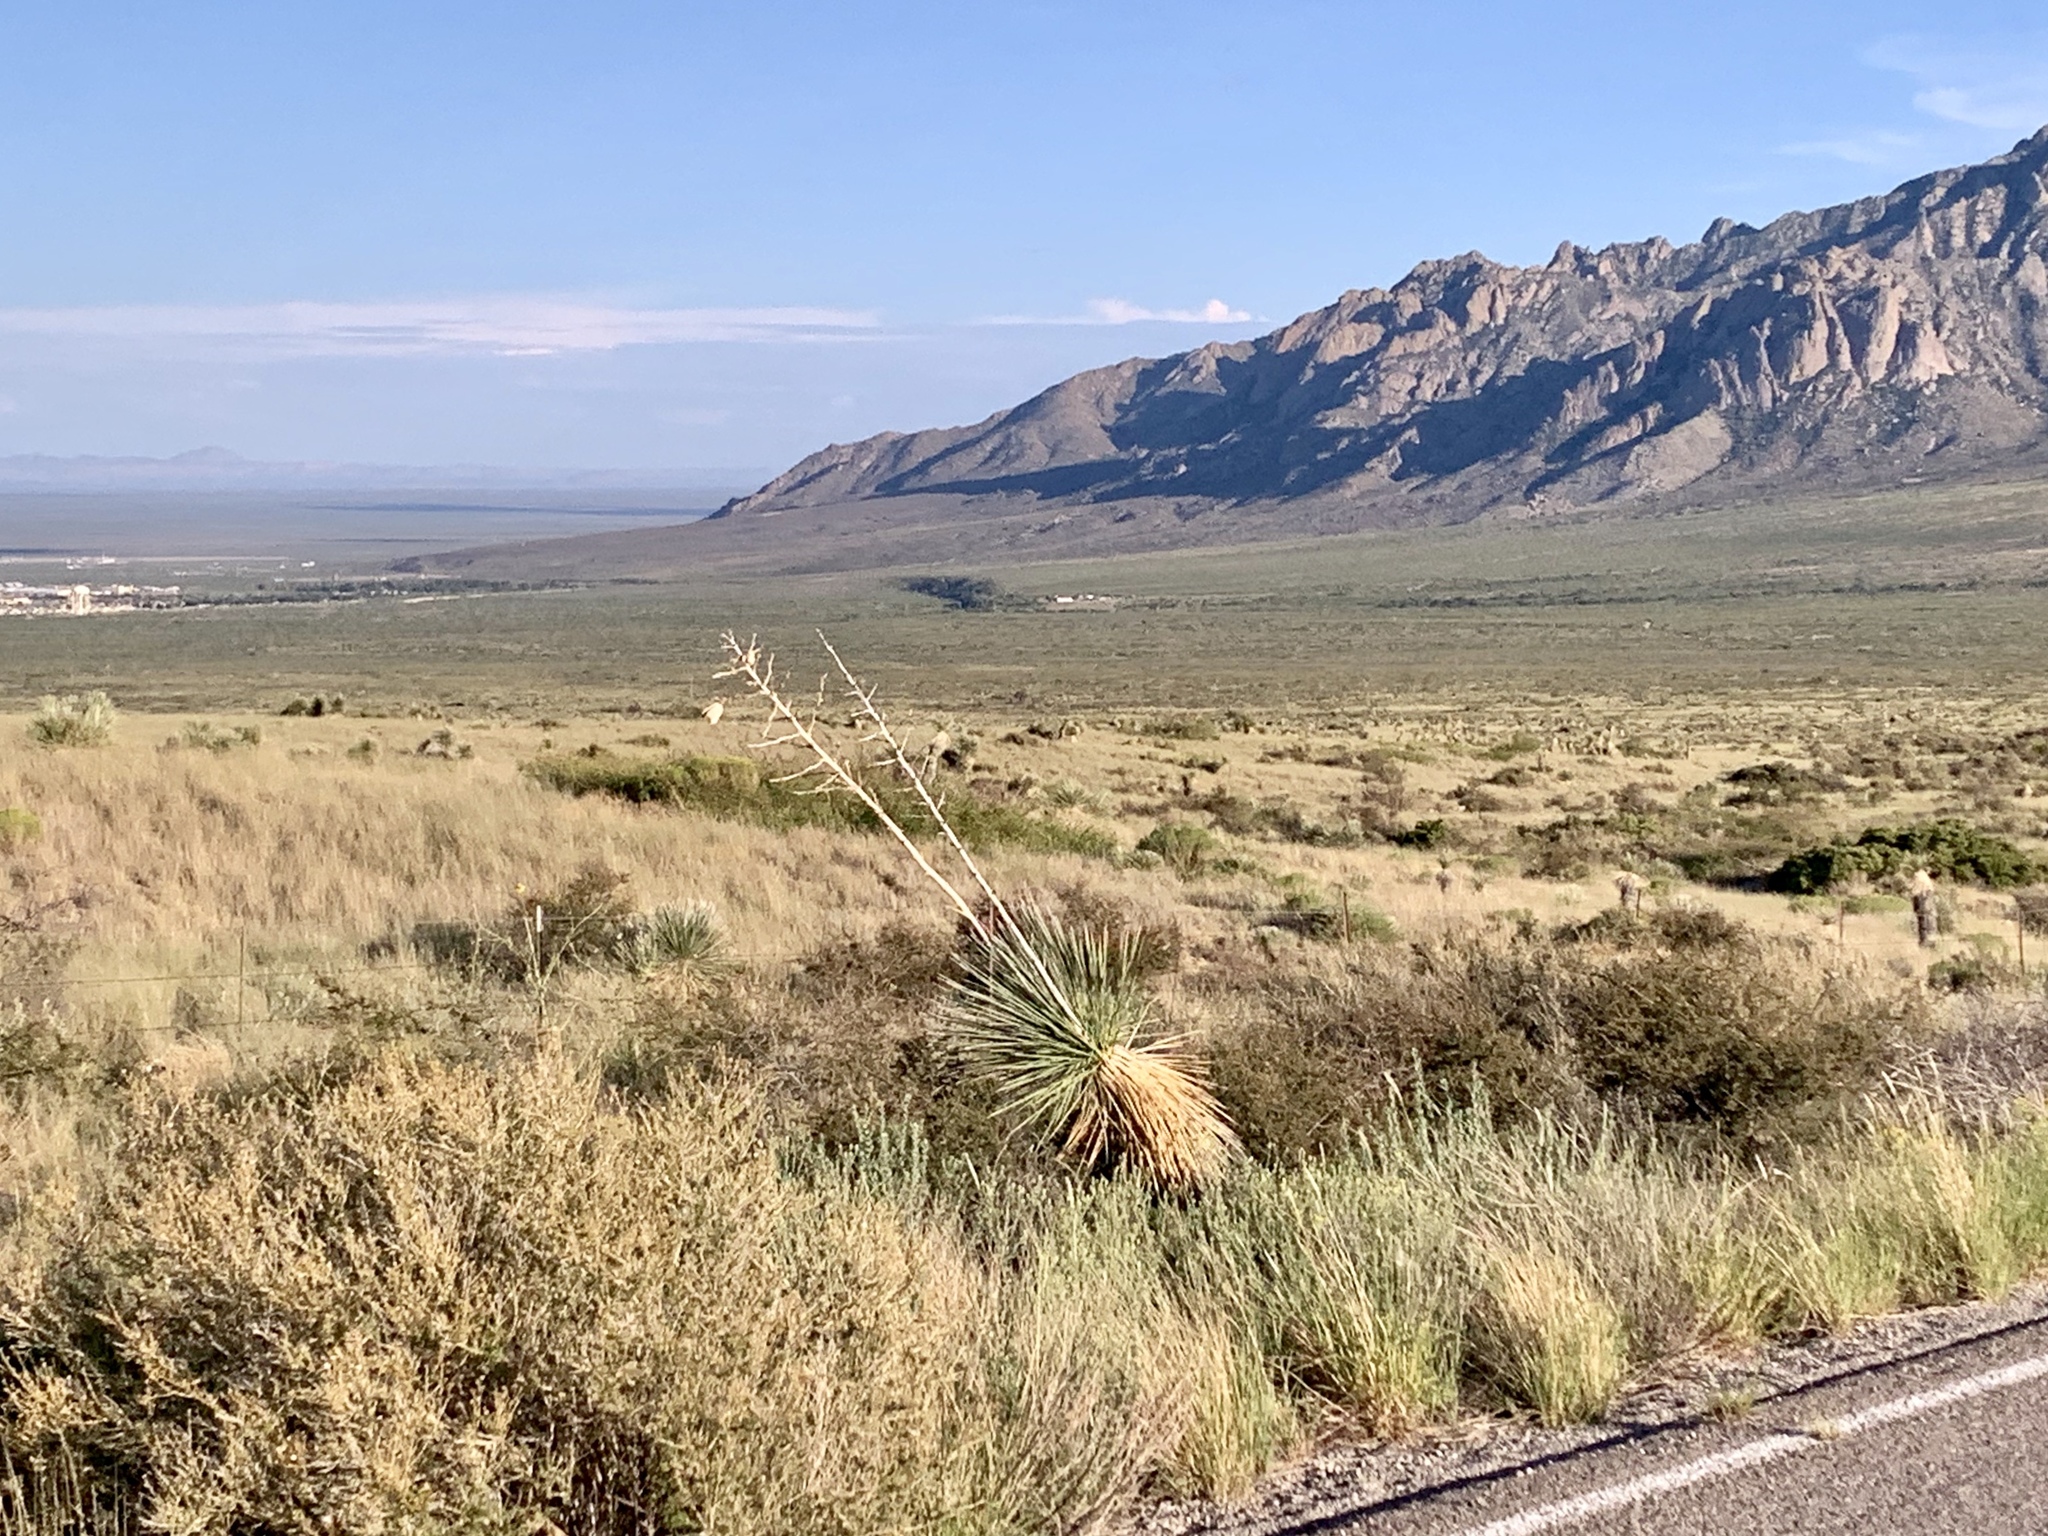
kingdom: Plantae
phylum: Tracheophyta
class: Liliopsida
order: Asparagales
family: Asparagaceae
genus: Yucca
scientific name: Yucca elata
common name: Palmella
